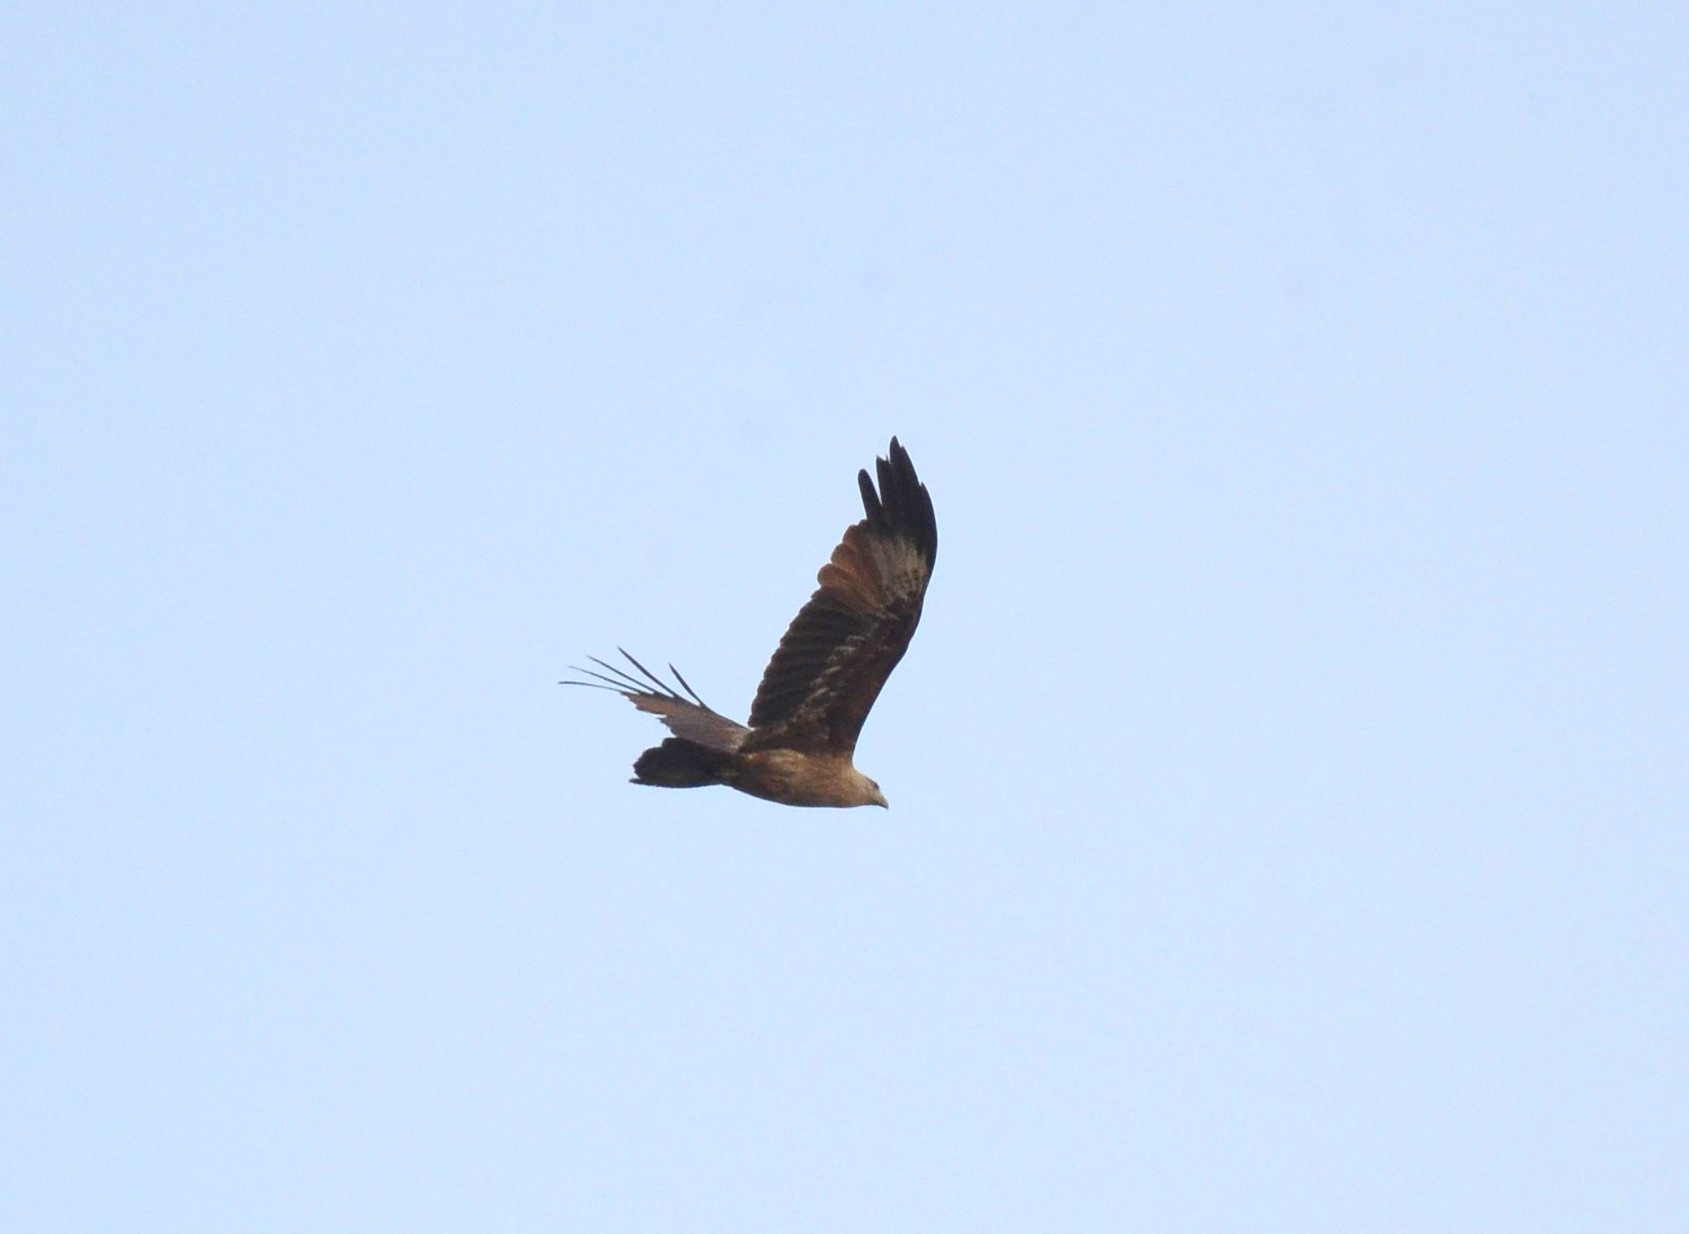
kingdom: Animalia
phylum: Chordata
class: Aves
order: Accipitriformes
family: Accipitridae
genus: Haliastur
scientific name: Haliastur indus
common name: Brahminy kite
